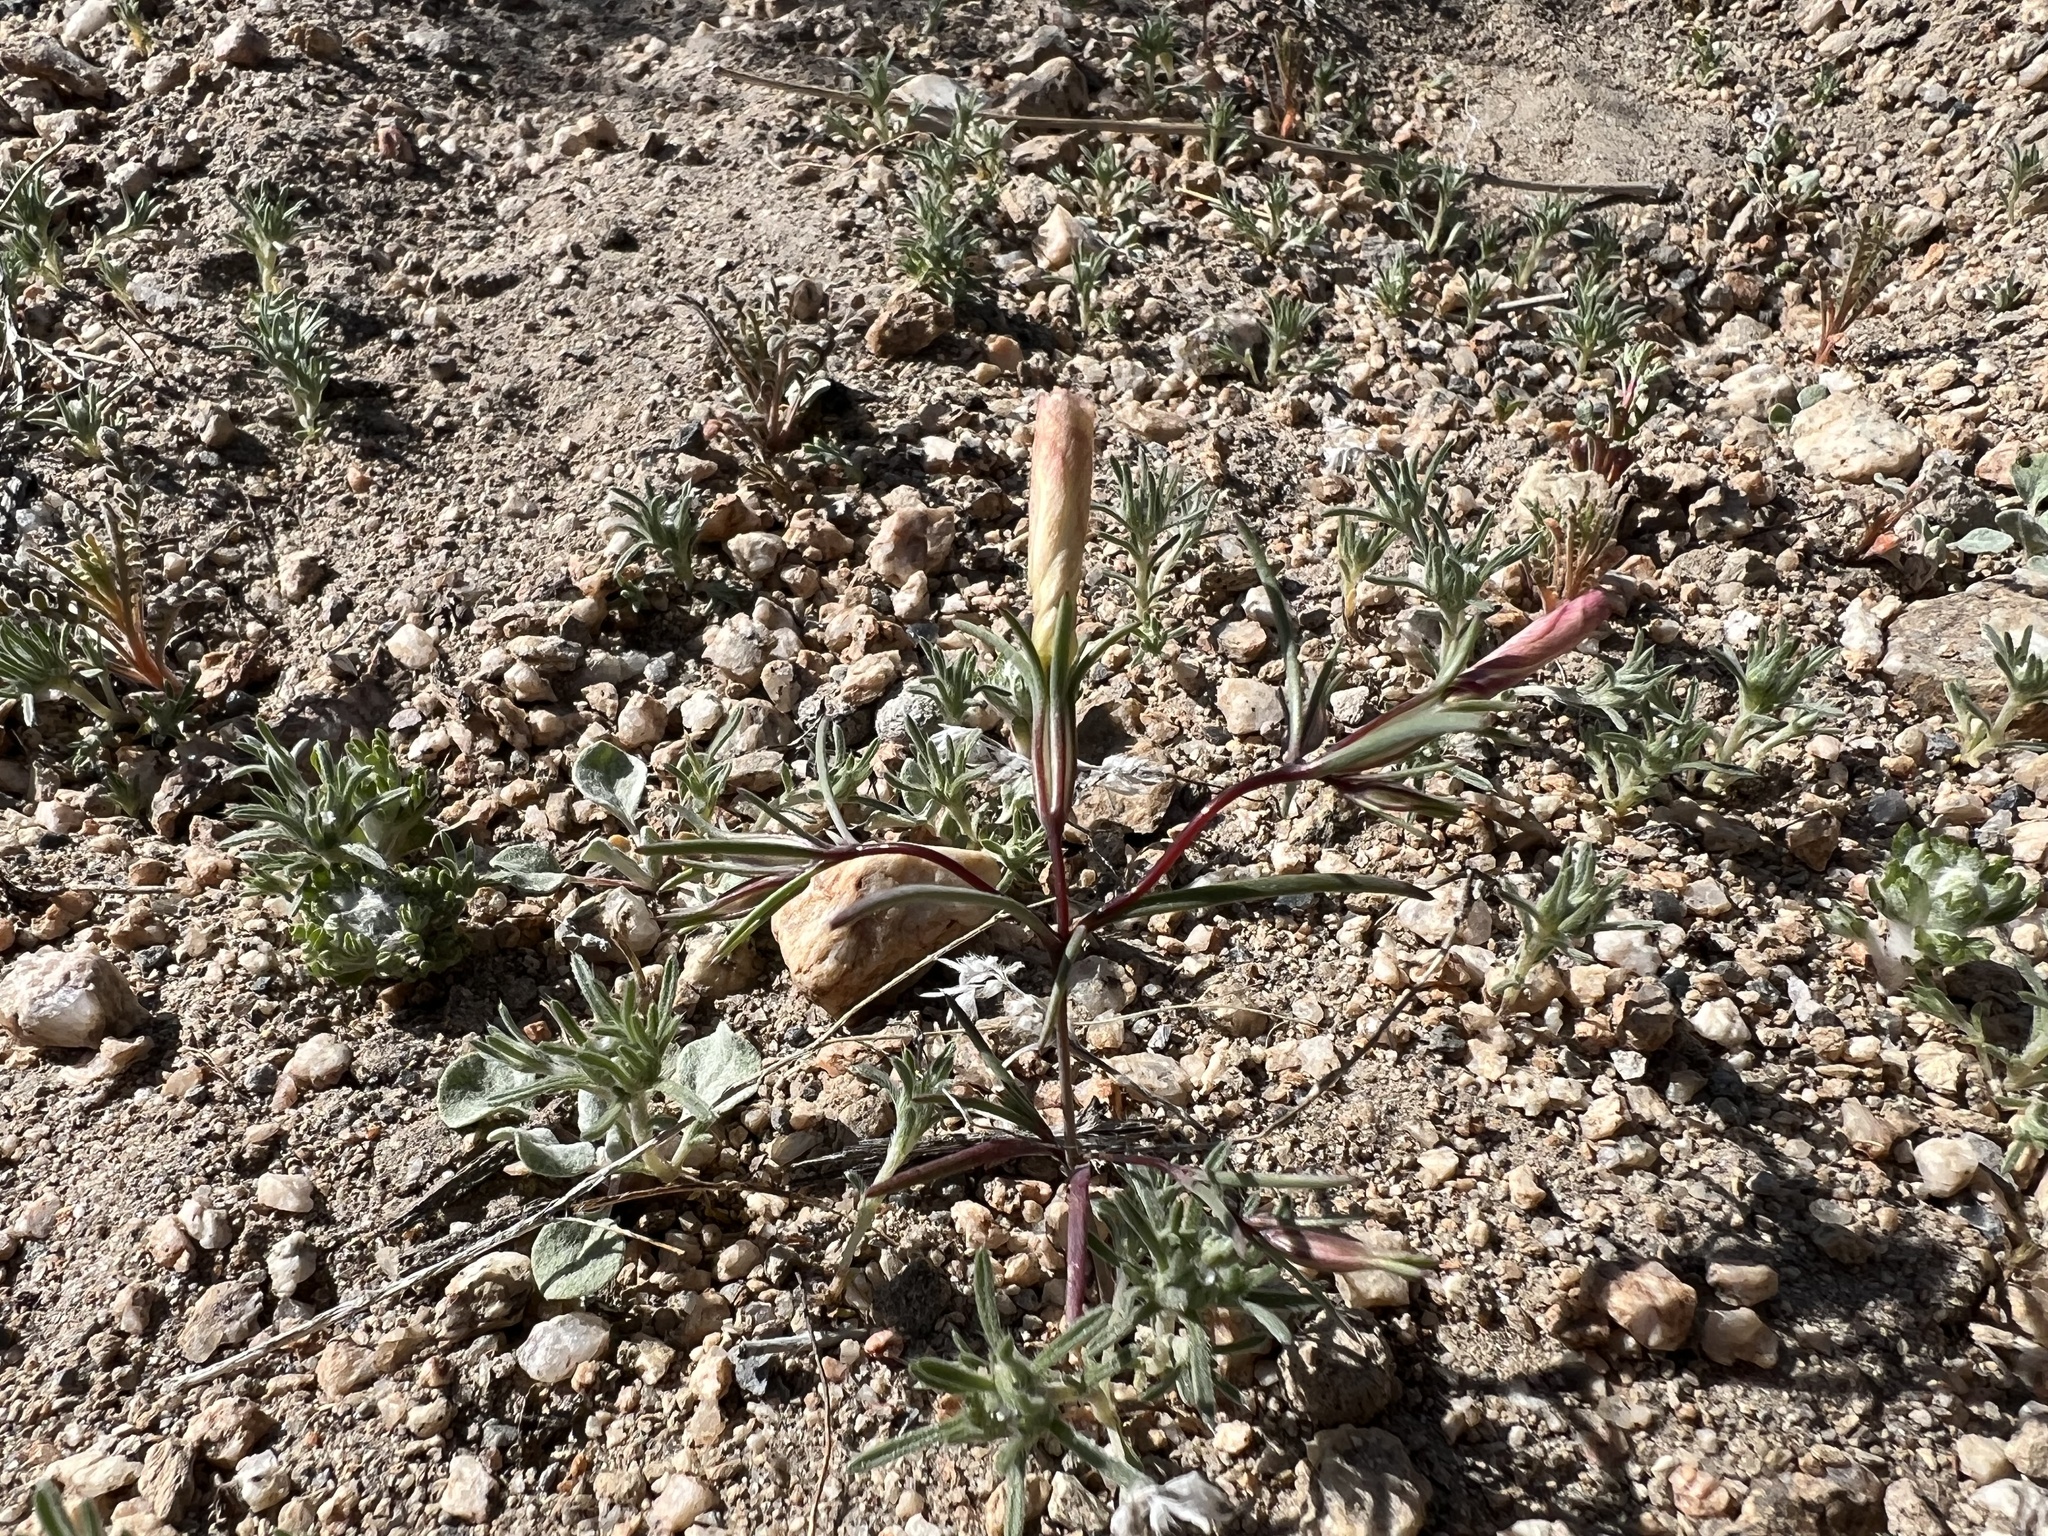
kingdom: Plantae
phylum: Tracheophyta
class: Magnoliopsida
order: Ericales
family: Polemoniaceae
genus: Linanthus
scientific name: Linanthus dichotomus
